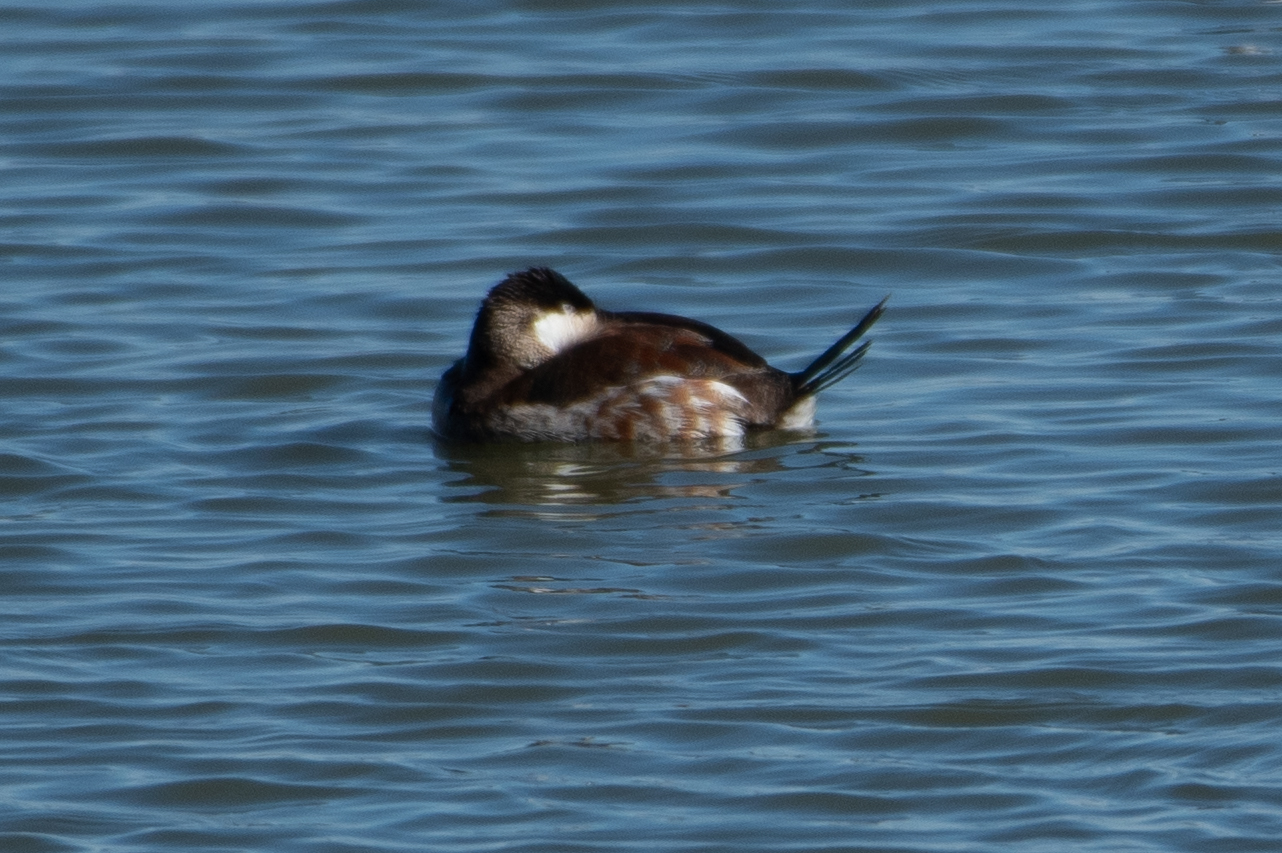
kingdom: Animalia
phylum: Chordata
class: Aves
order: Anseriformes
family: Anatidae
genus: Oxyura
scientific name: Oxyura jamaicensis
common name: Ruddy duck
